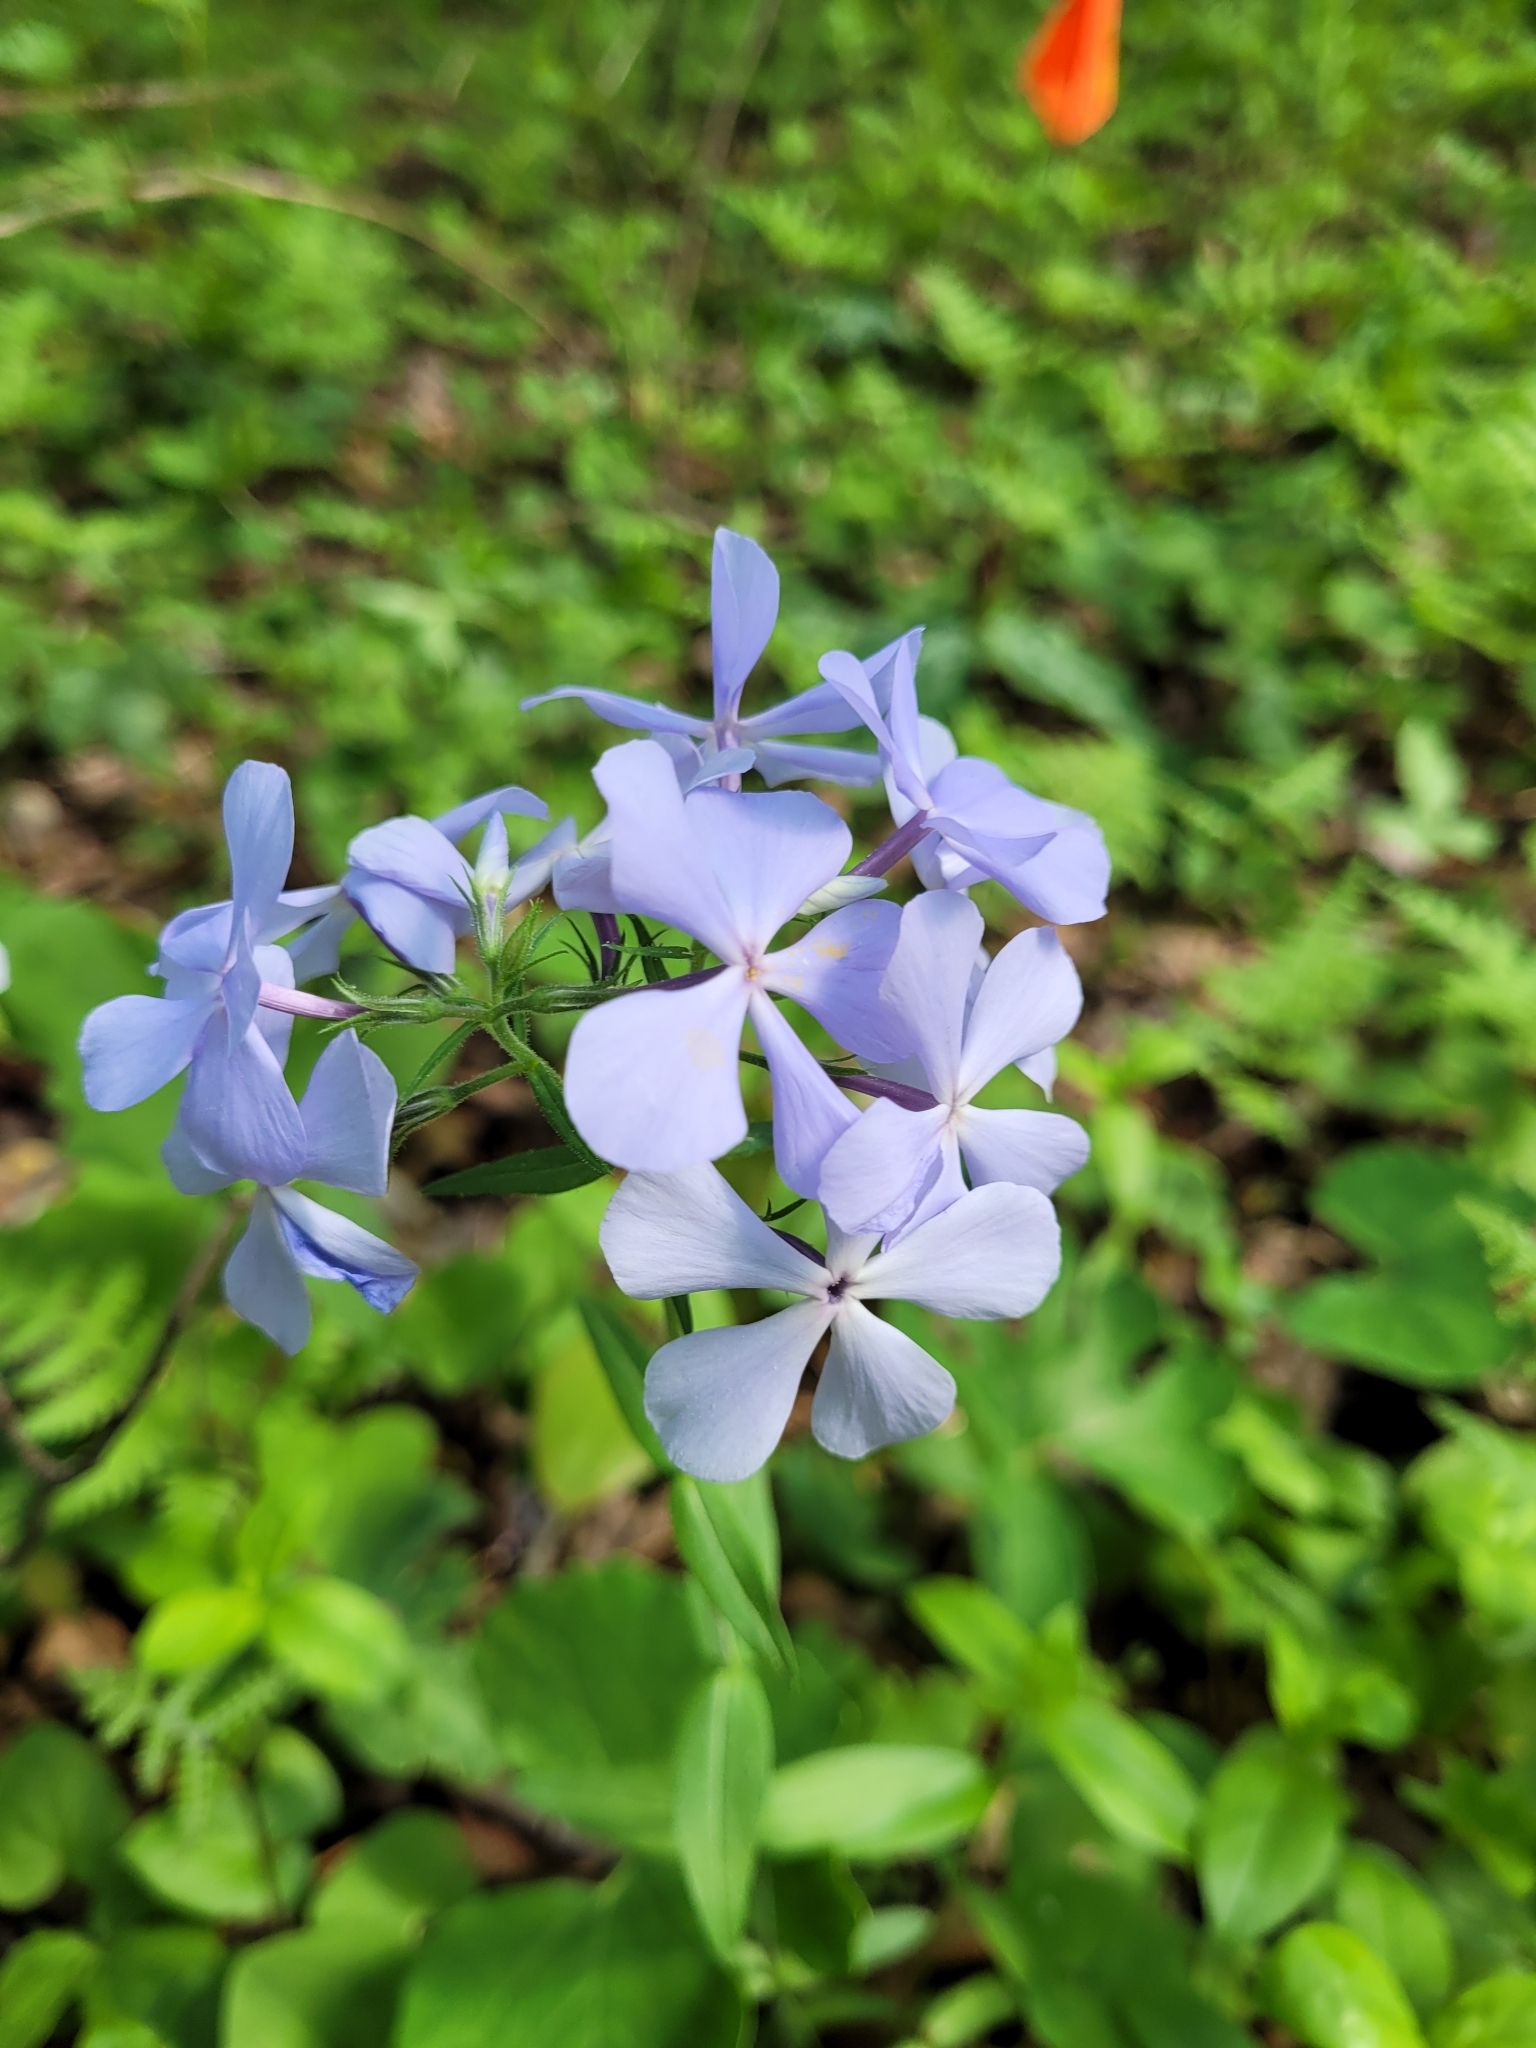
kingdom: Plantae
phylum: Tracheophyta
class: Magnoliopsida
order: Ericales
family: Polemoniaceae
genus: Phlox
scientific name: Phlox divaricata
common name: Blue phlox
